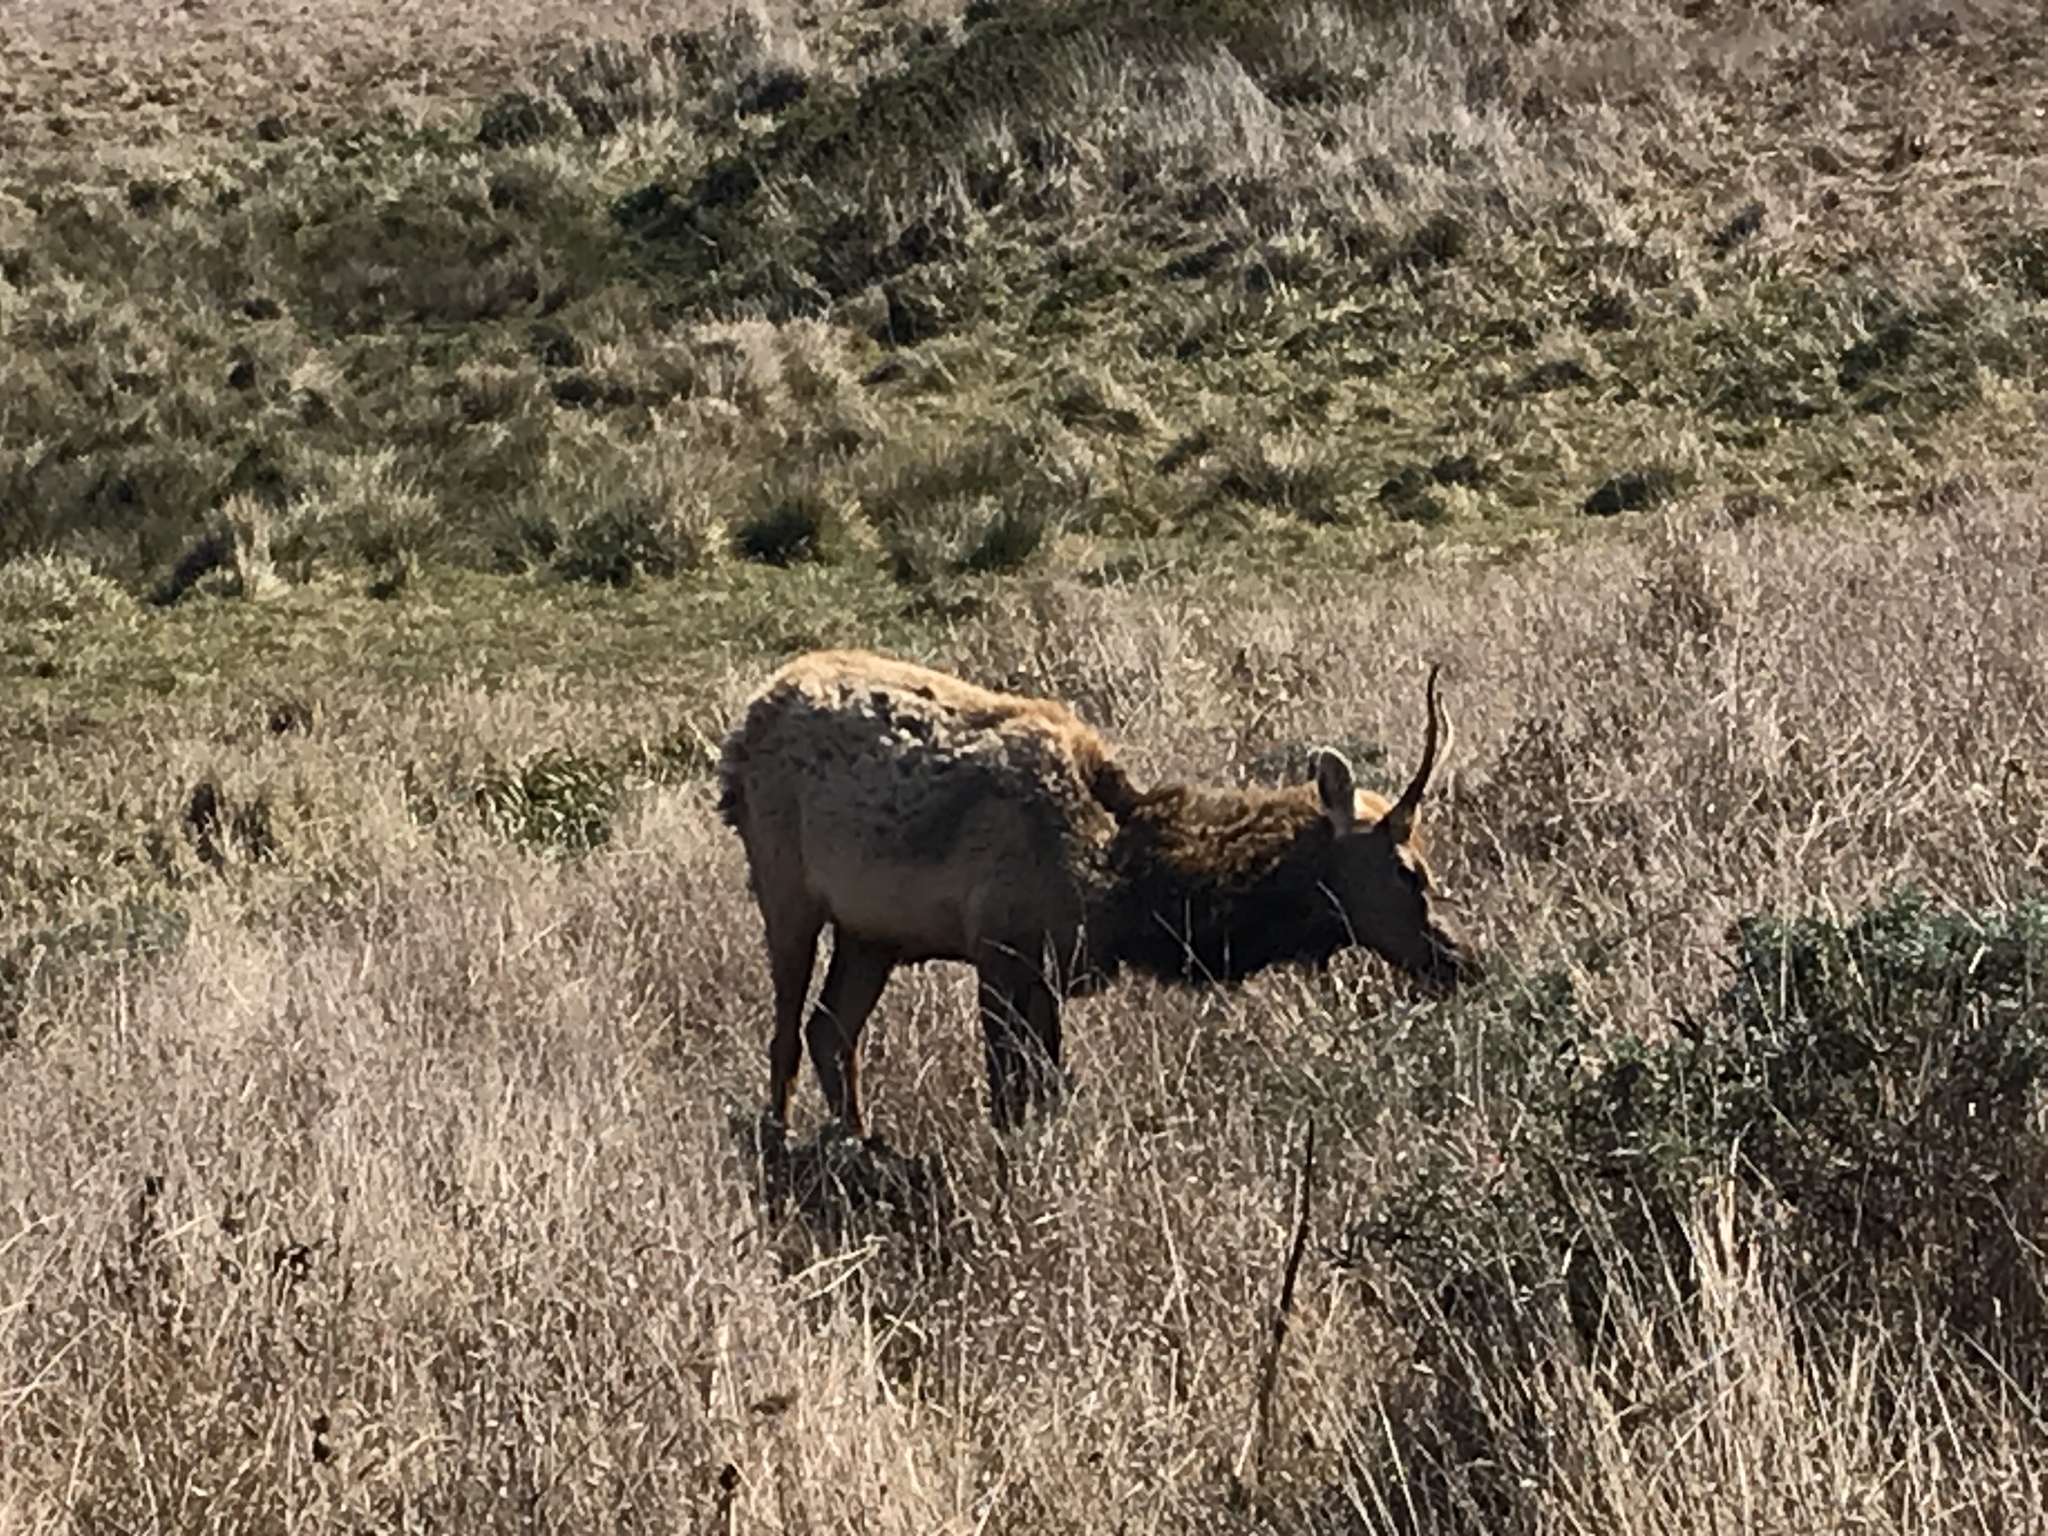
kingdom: Animalia
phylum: Chordata
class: Mammalia
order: Artiodactyla
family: Cervidae
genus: Cervus
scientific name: Cervus elaphus
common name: Red deer
